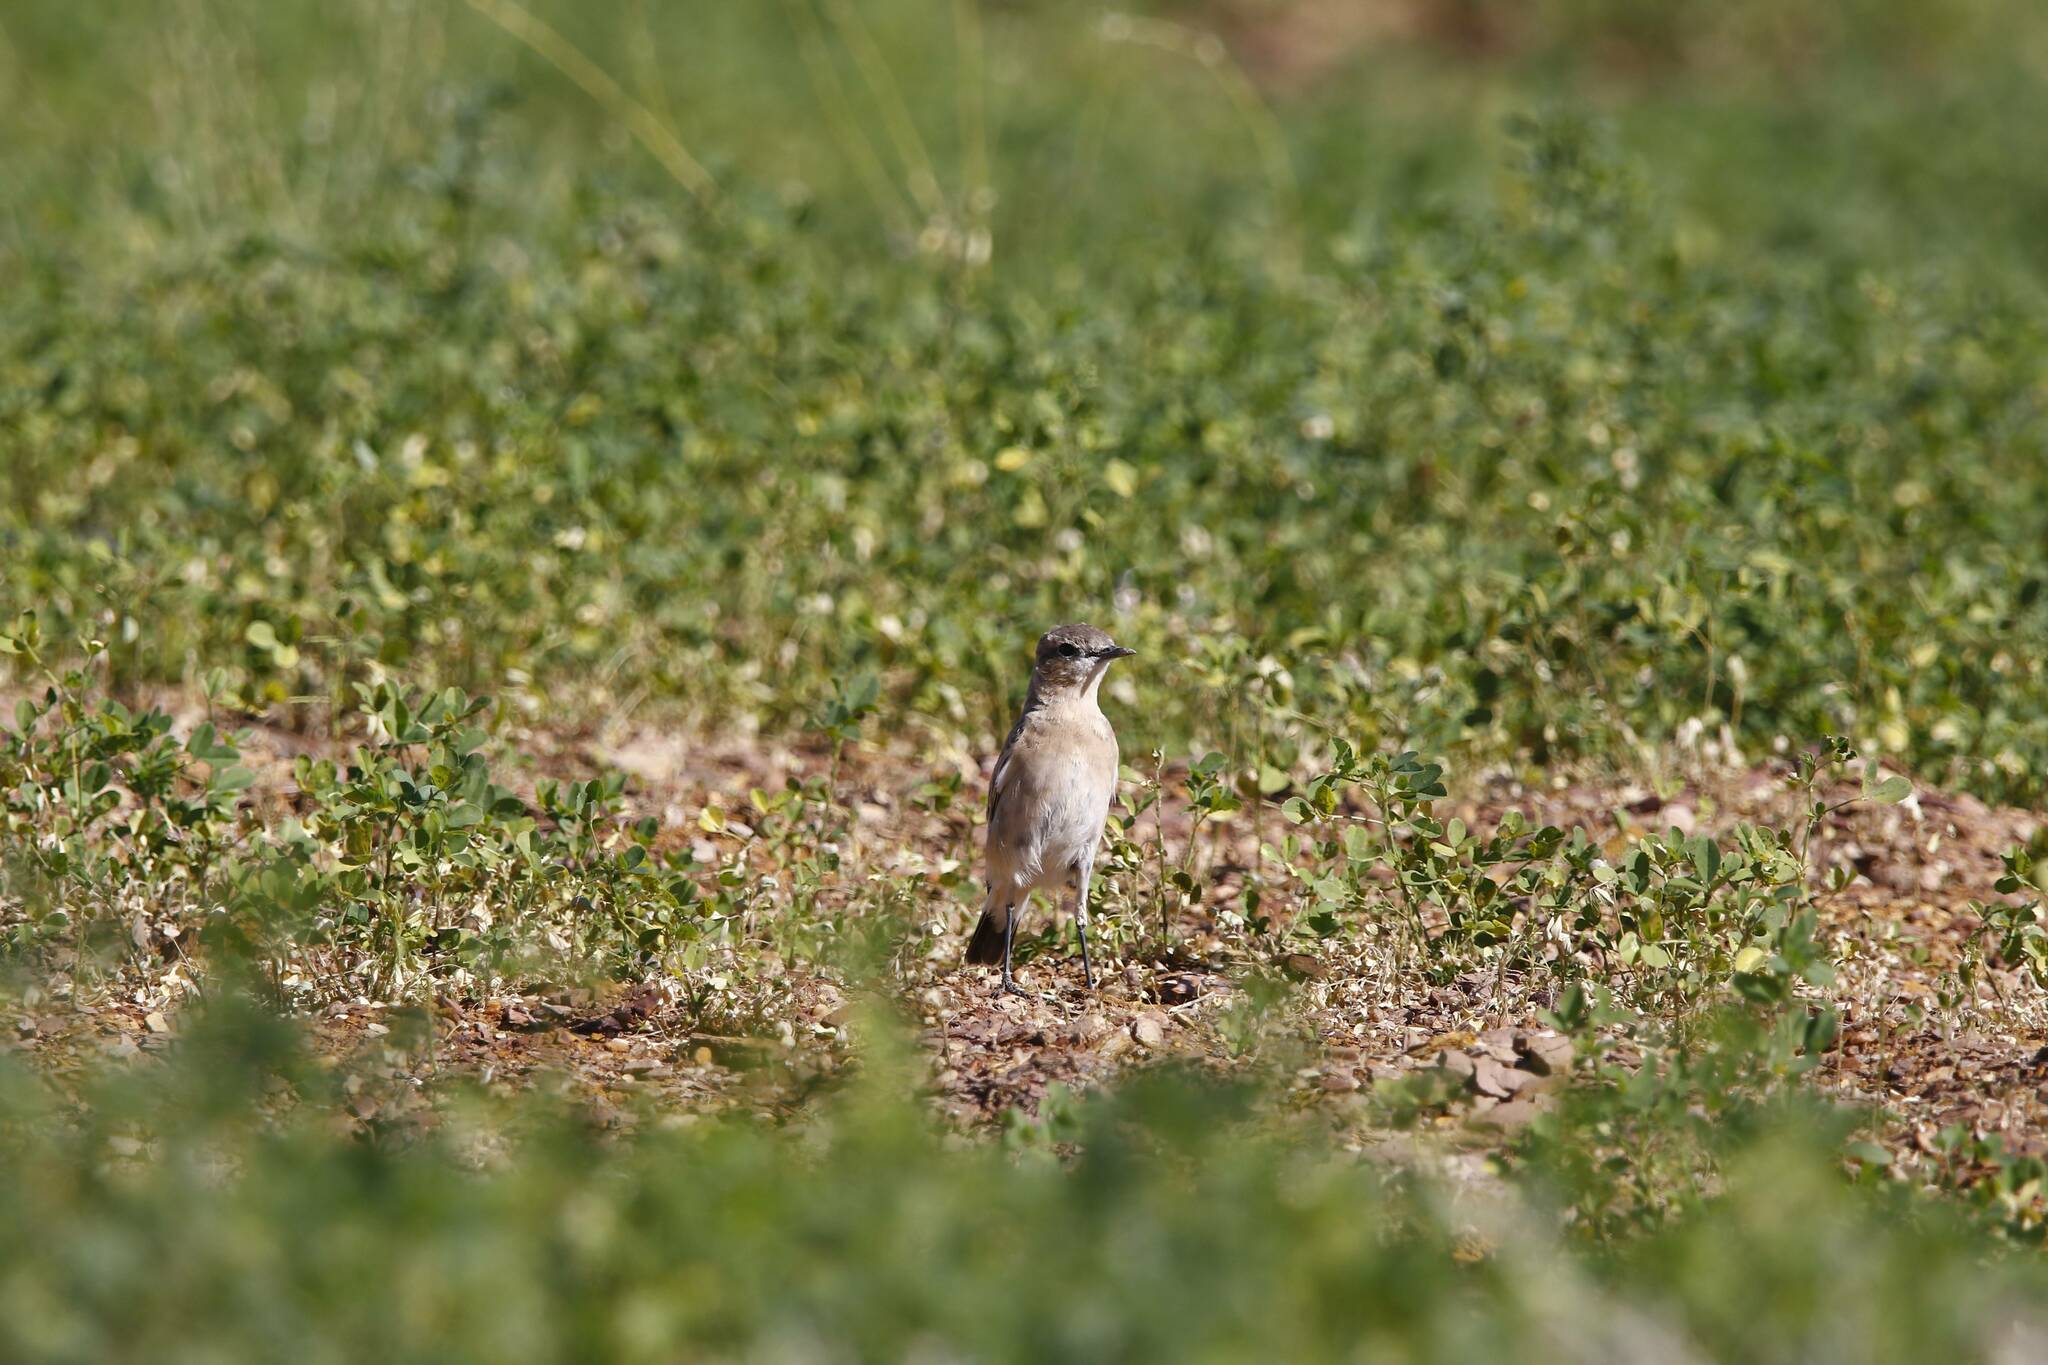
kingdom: Animalia
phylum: Chordata
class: Aves
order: Passeriformes
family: Muscicapidae
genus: Oenanthe
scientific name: Oenanthe isabellina
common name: Isabelline wheatear
